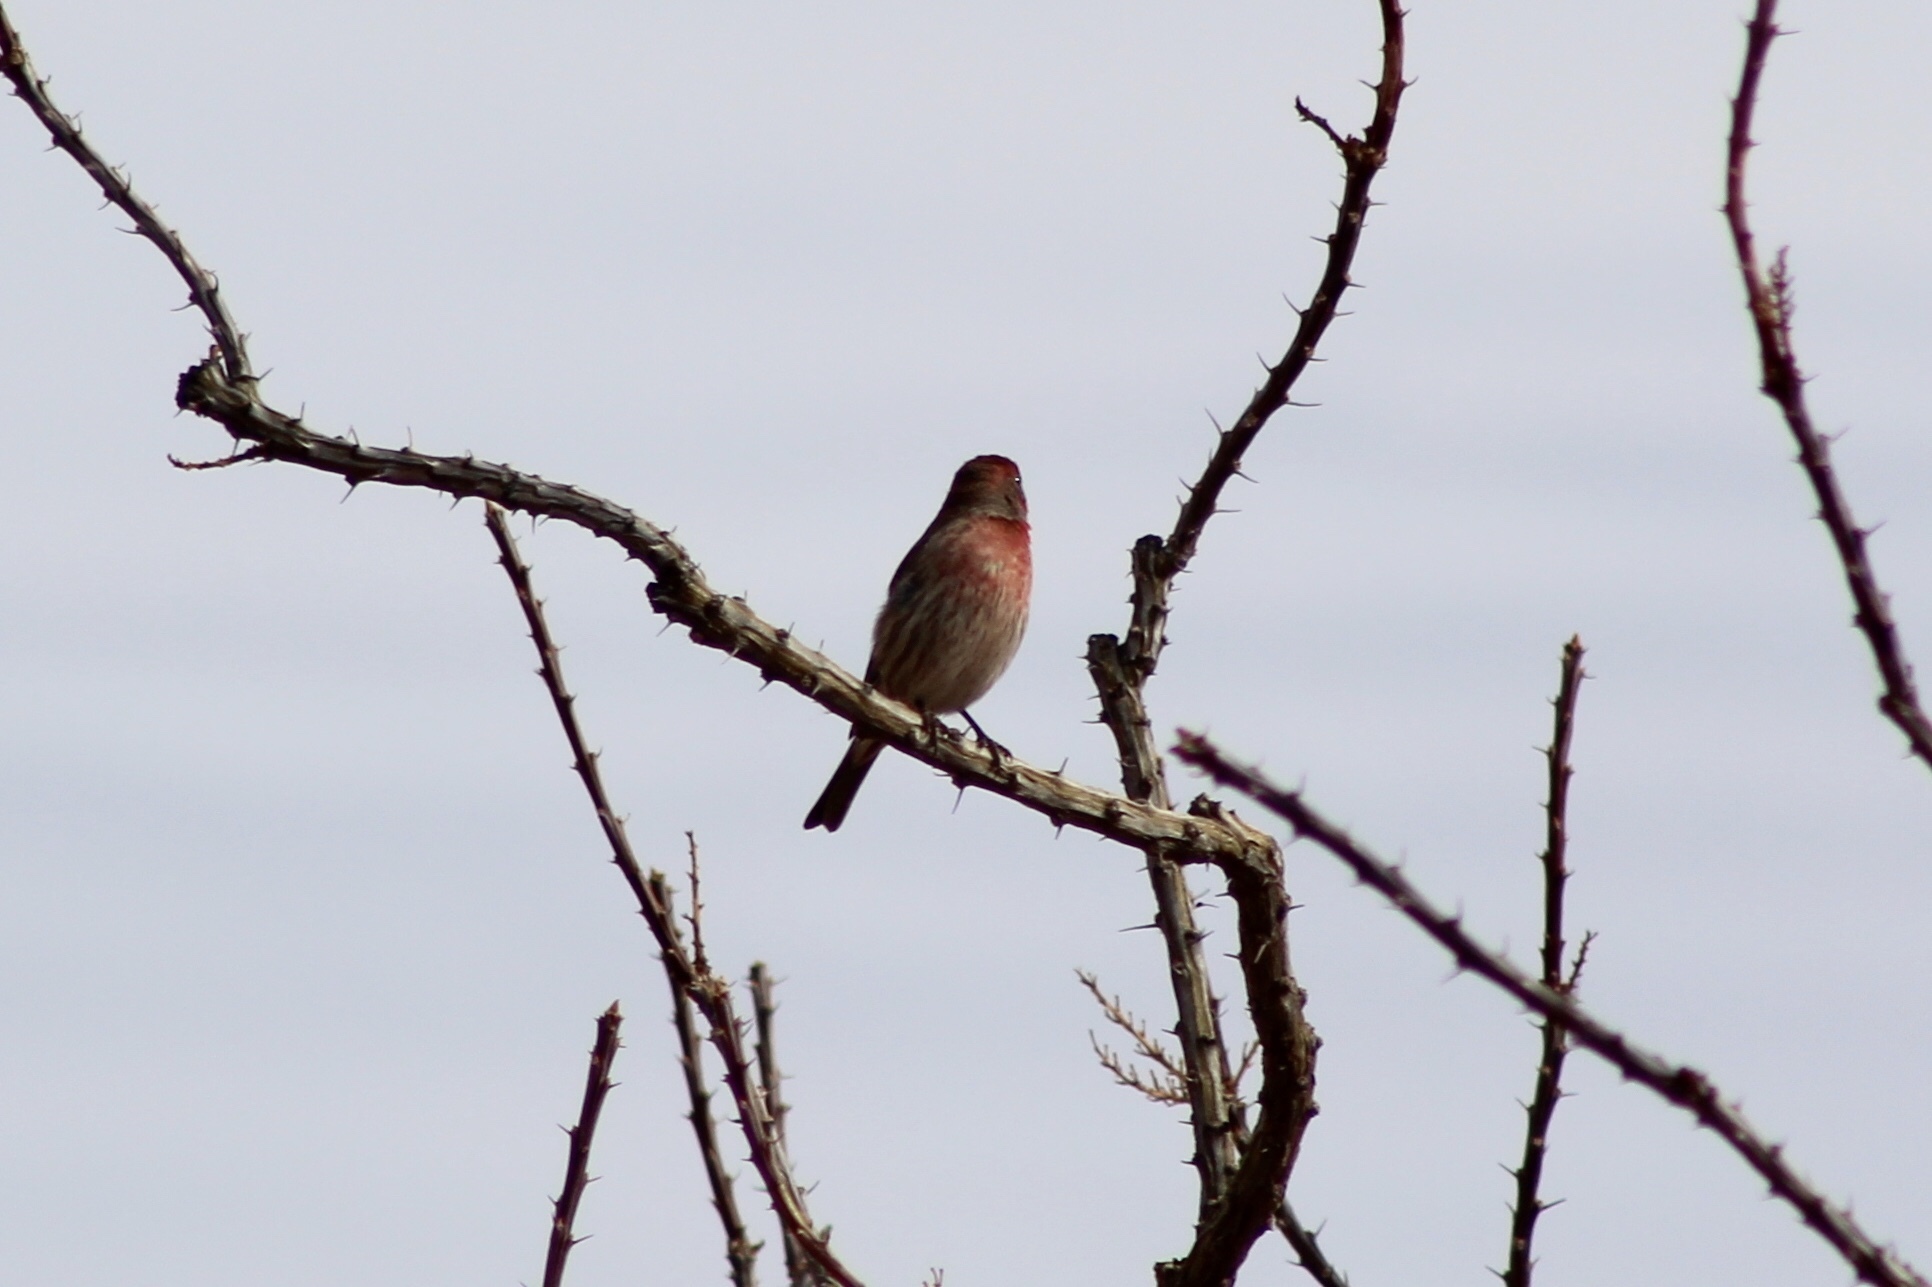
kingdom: Animalia
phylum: Chordata
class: Aves
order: Passeriformes
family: Fringillidae
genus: Haemorhous
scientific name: Haemorhous mexicanus
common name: House finch
